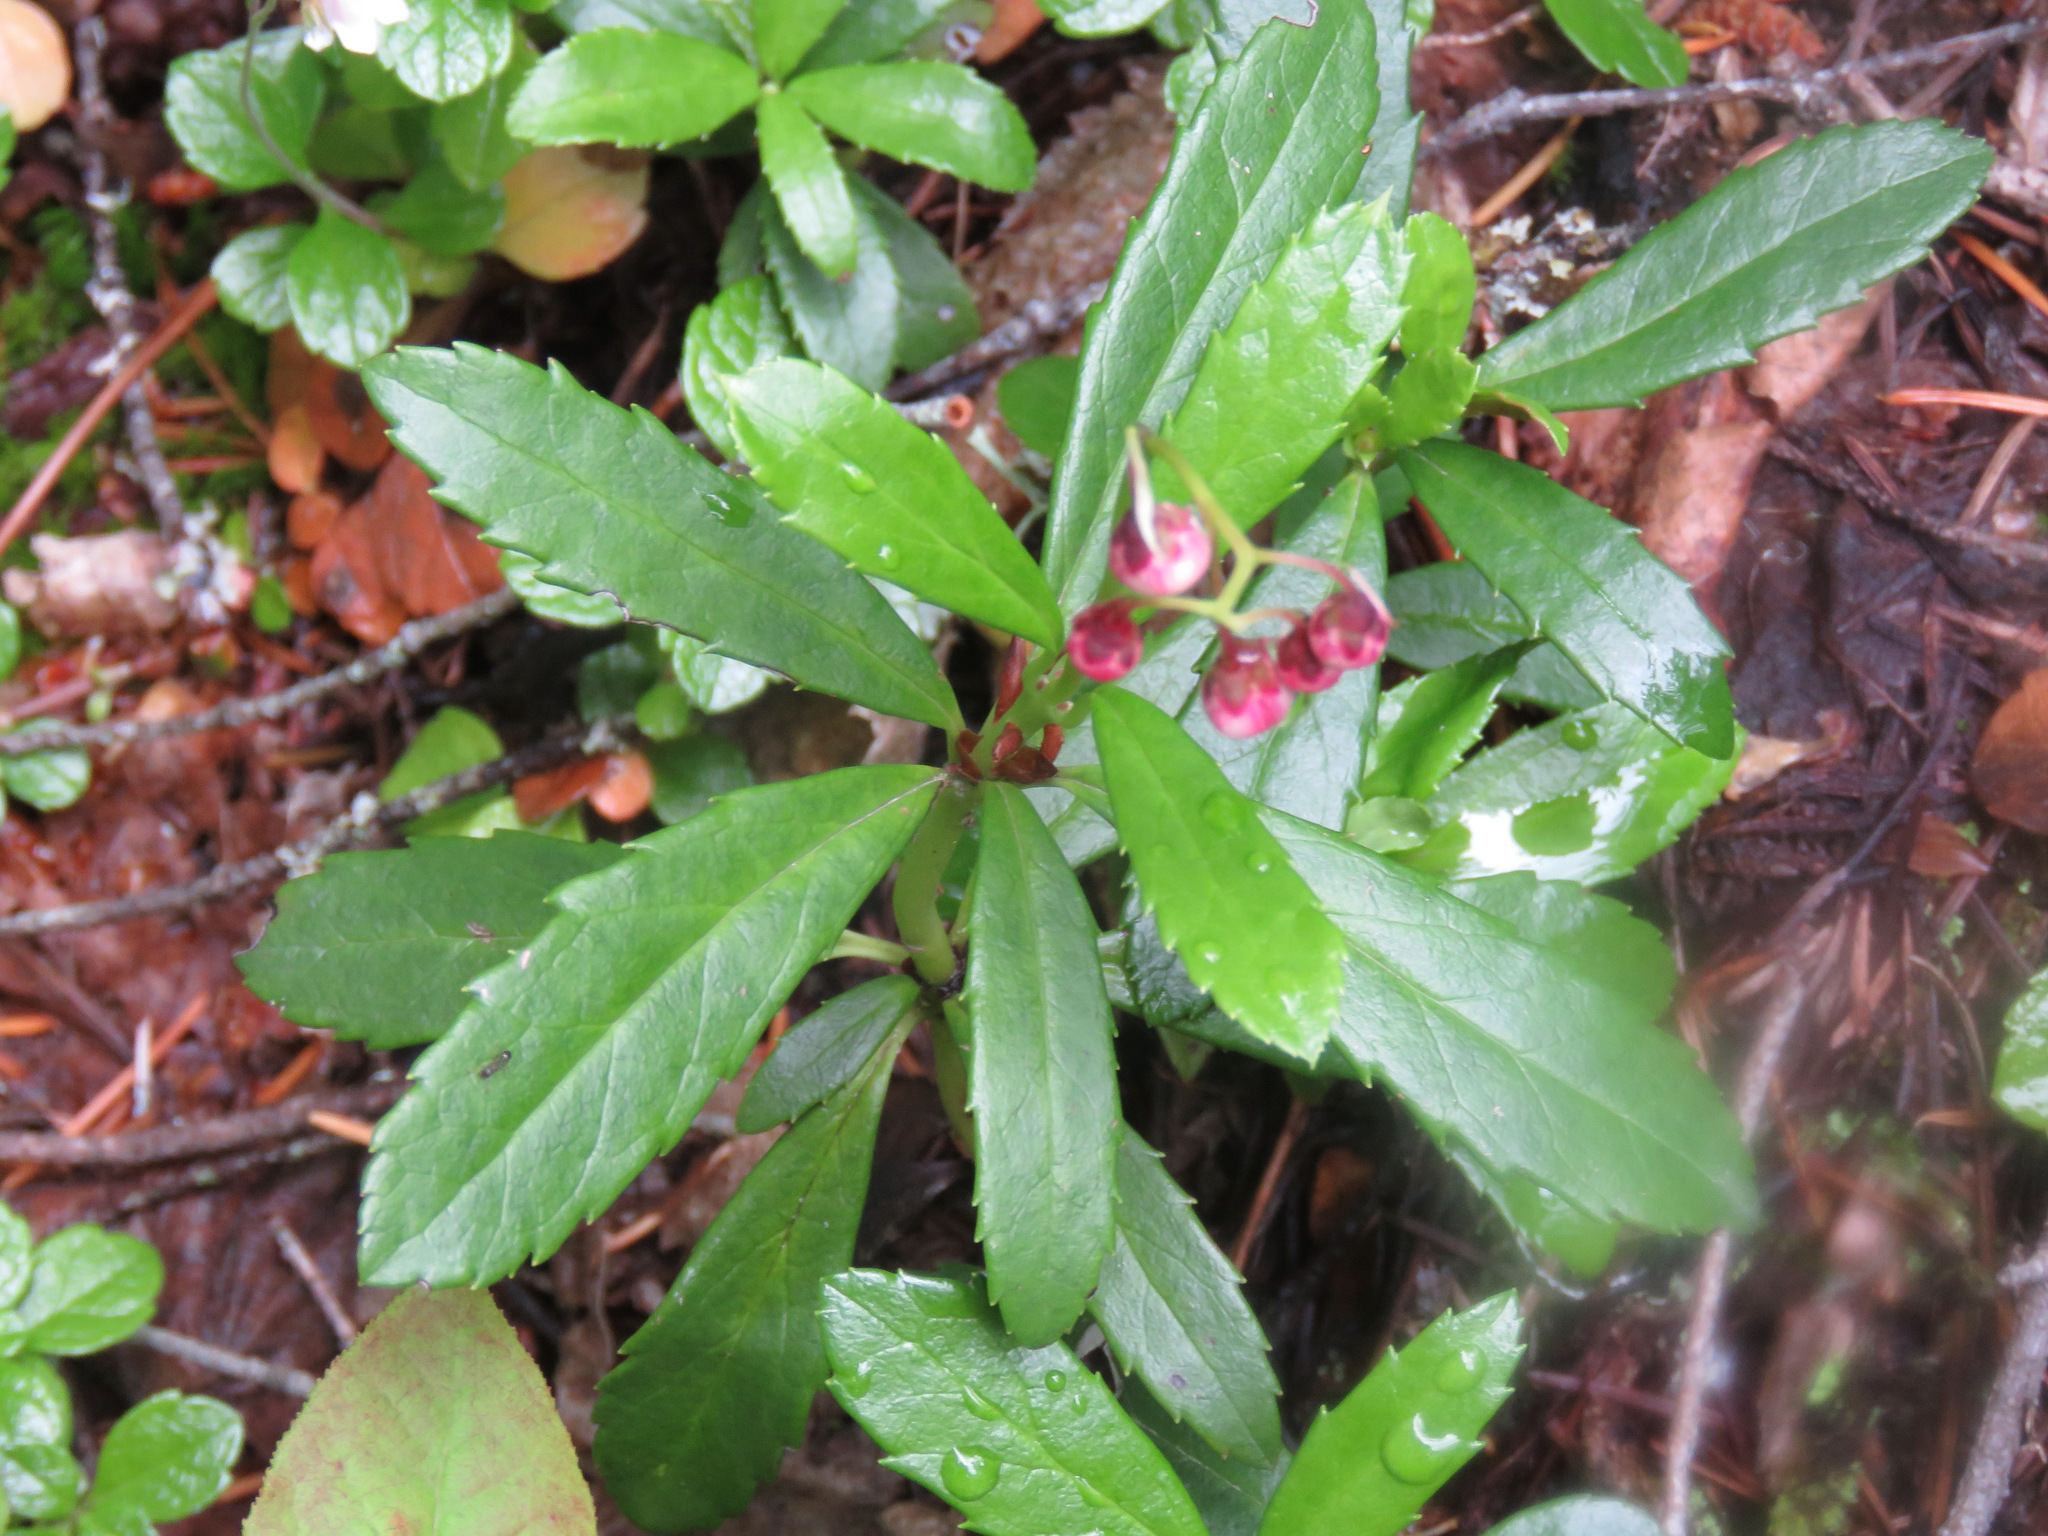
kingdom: Plantae
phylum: Tracheophyta
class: Magnoliopsida
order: Ericales
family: Ericaceae
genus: Chimaphila
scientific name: Chimaphila umbellata
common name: Pipsissewa
